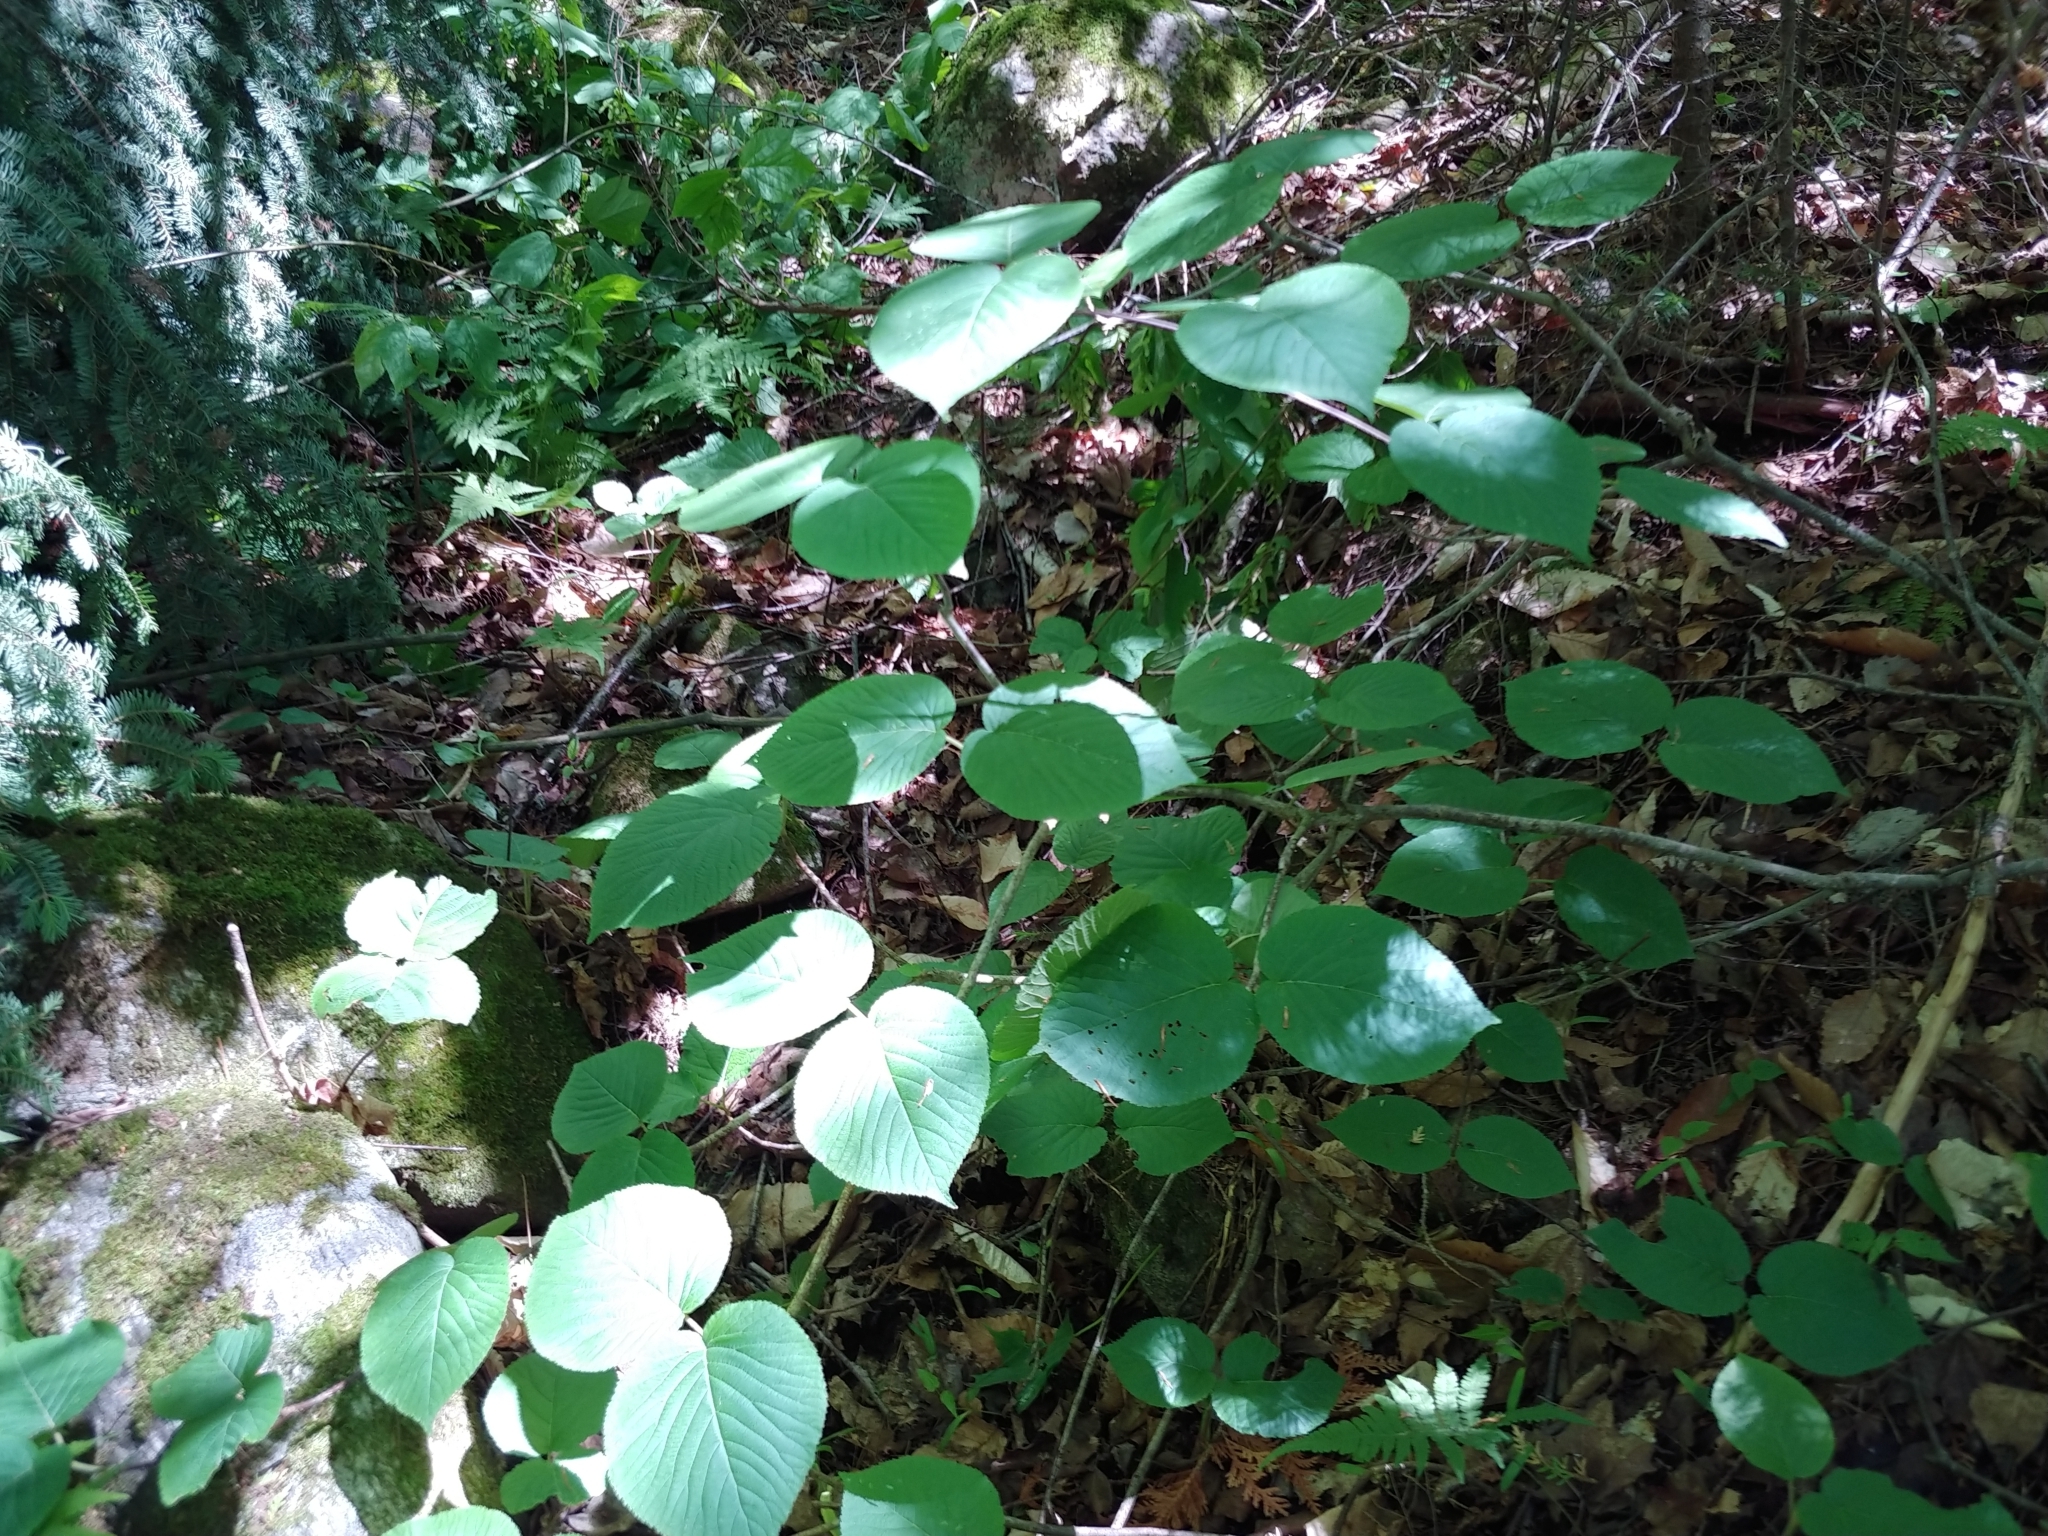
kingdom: Plantae
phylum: Tracheophyta
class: Magnoliopsida
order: Dipsacales
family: Viburnaceae
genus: Viburnum
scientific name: Viburnum lantanoides
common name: Hobblebush
